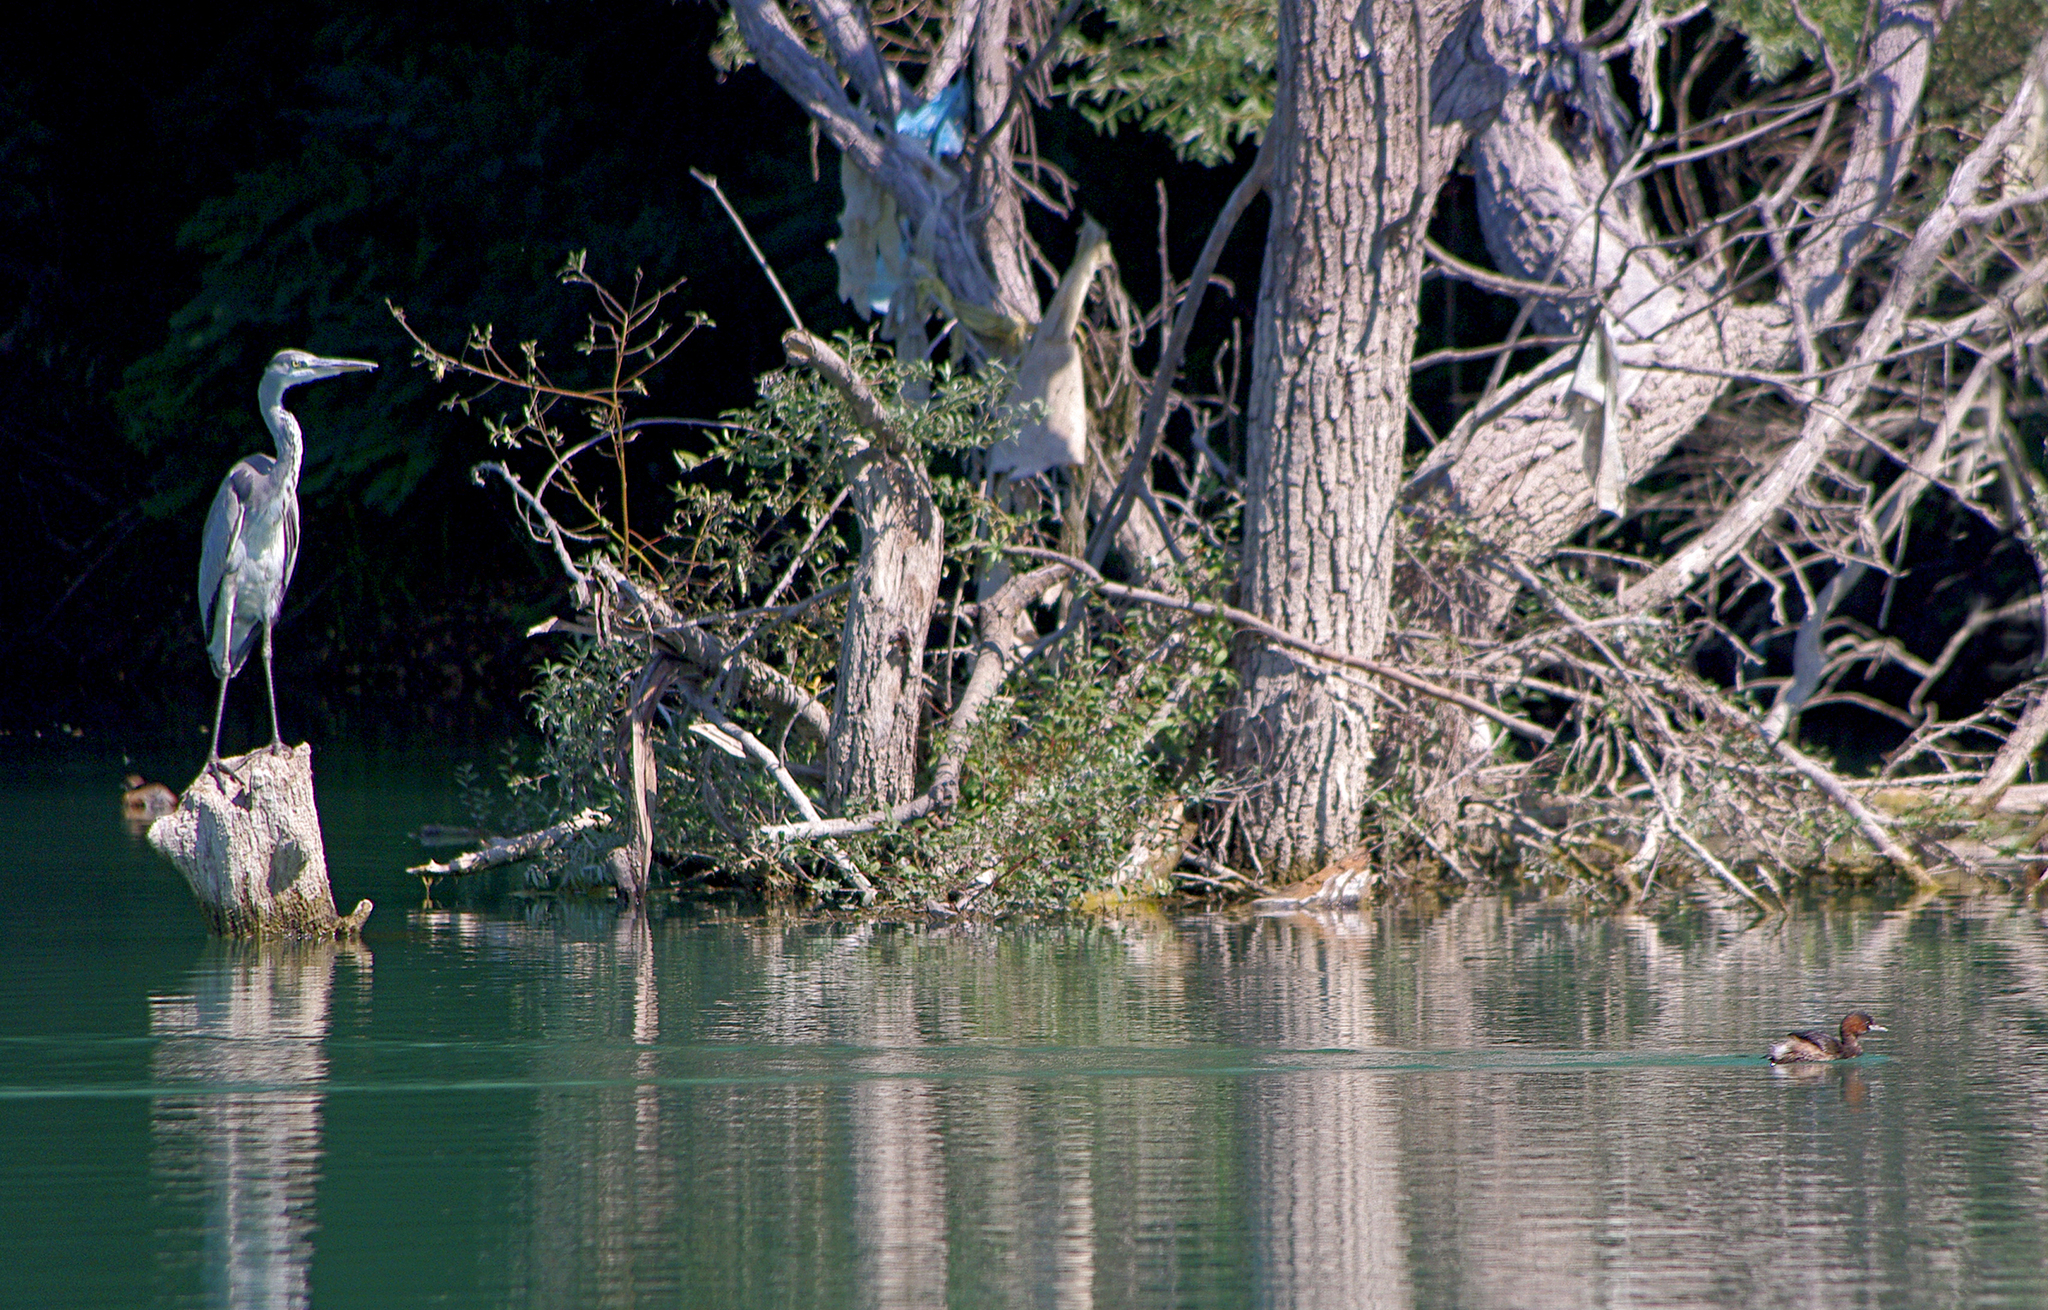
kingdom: Animalia
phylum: Chordata
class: Aves
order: Podicipediformes
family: Podicipedidae
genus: Tachybaptus
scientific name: Tachybaptus ruficollis
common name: Little grebe
